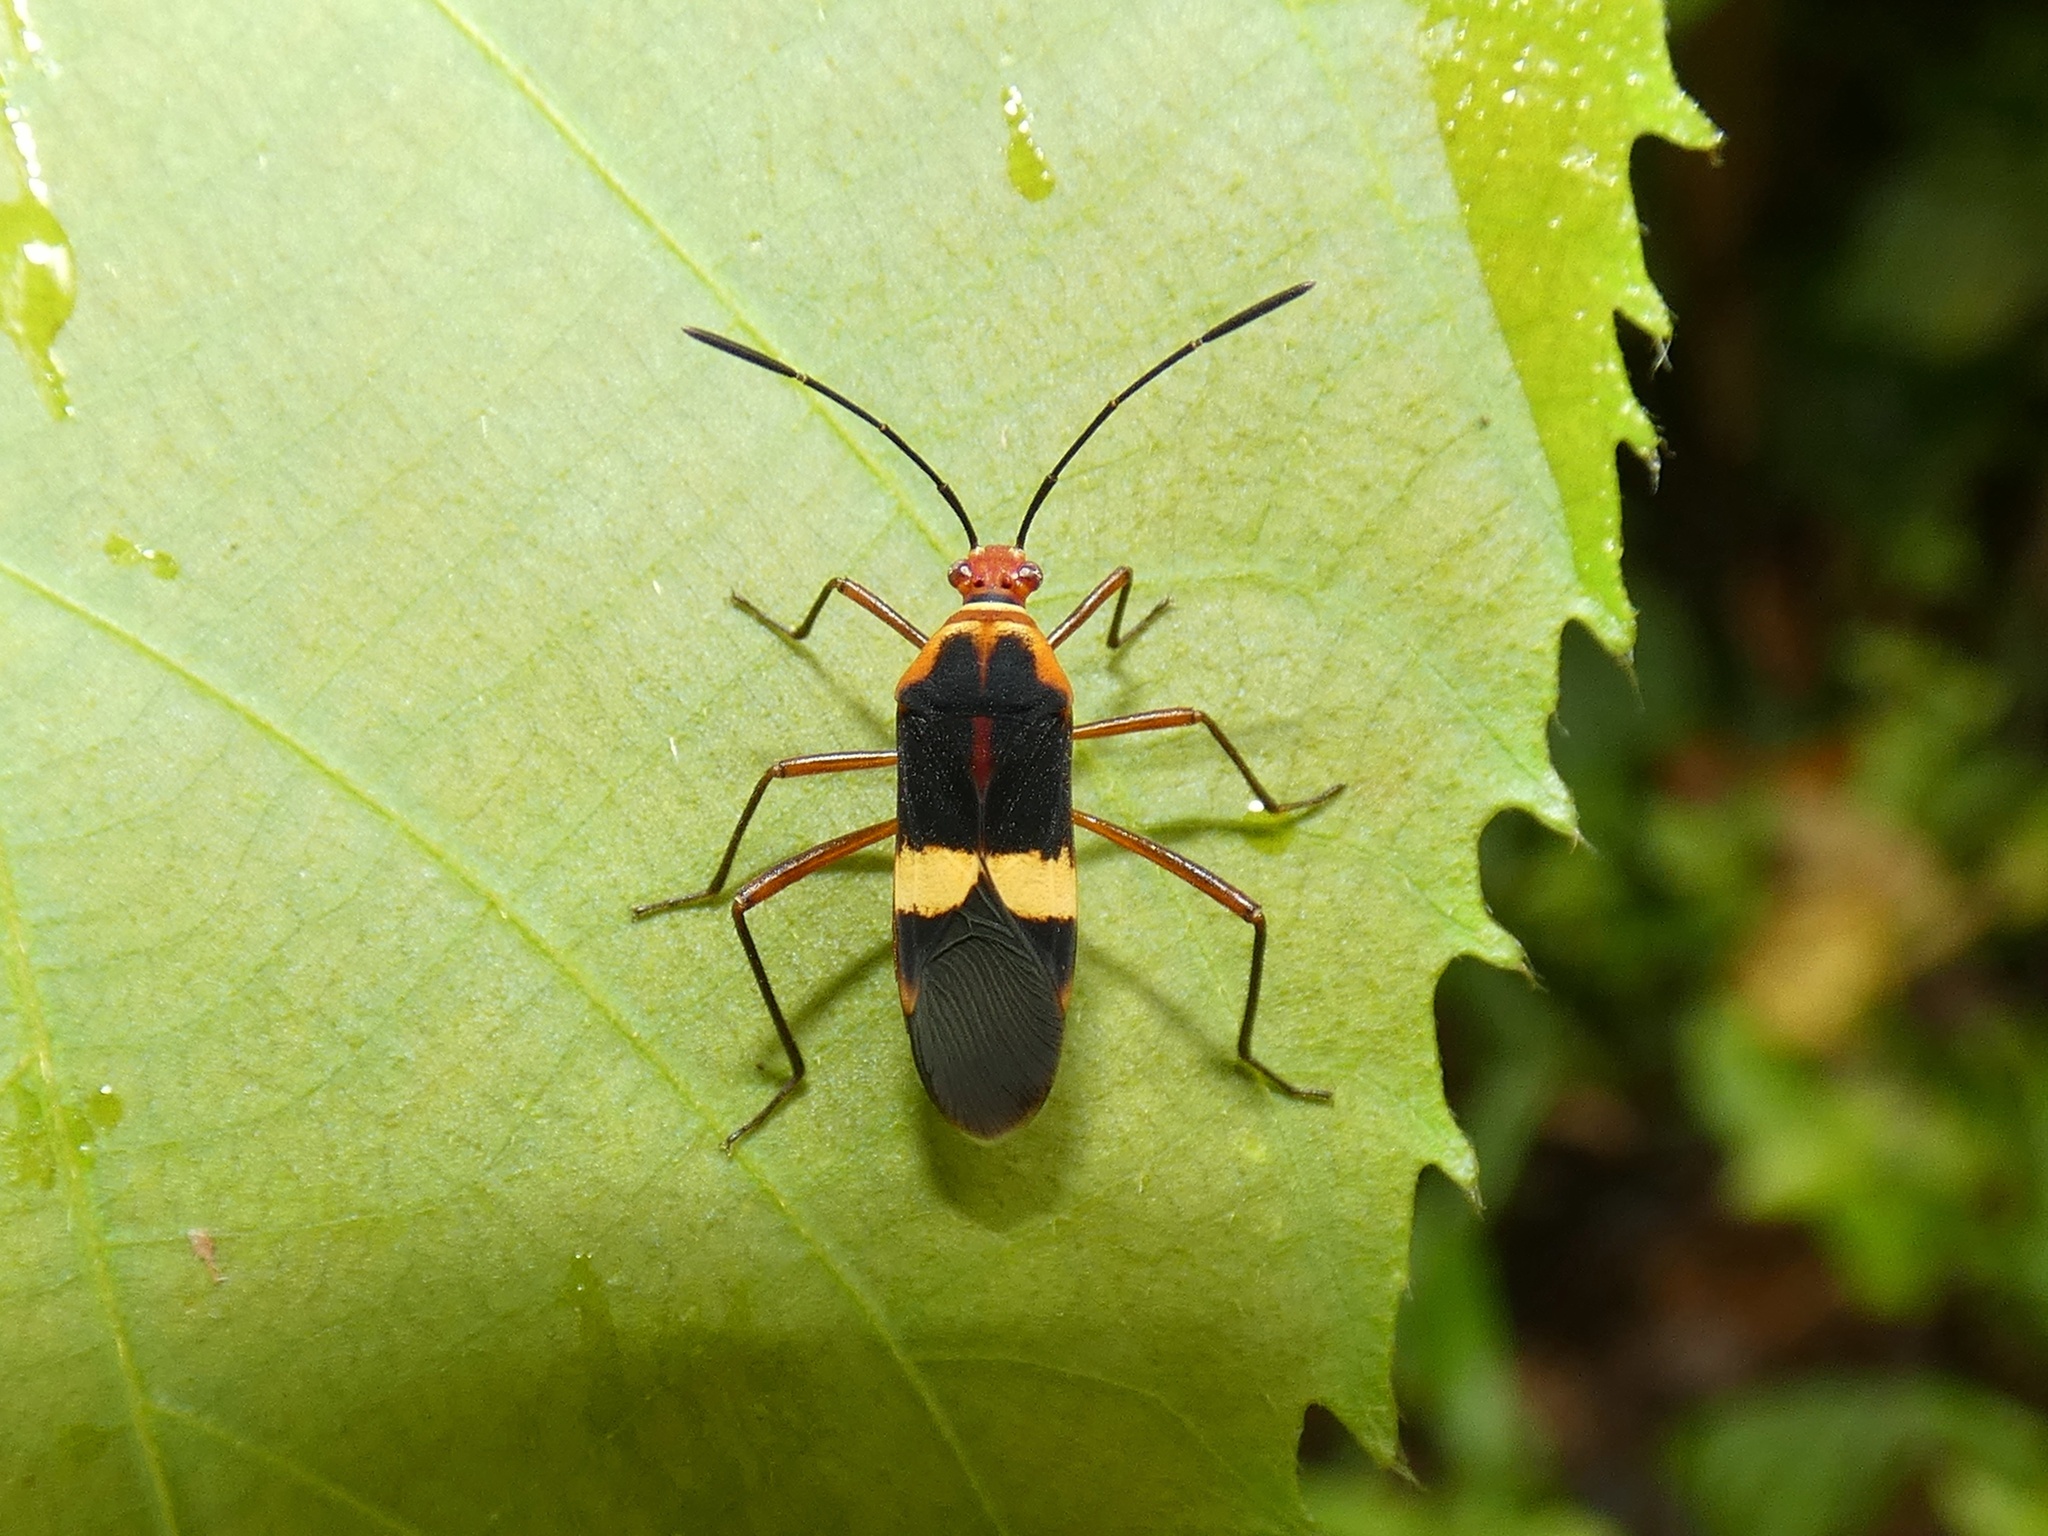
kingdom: Animalia
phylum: Arthropoda
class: Insecta
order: Hemiptera
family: Coreidae
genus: Hypselonotus
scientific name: Hypselonotus interruptus
